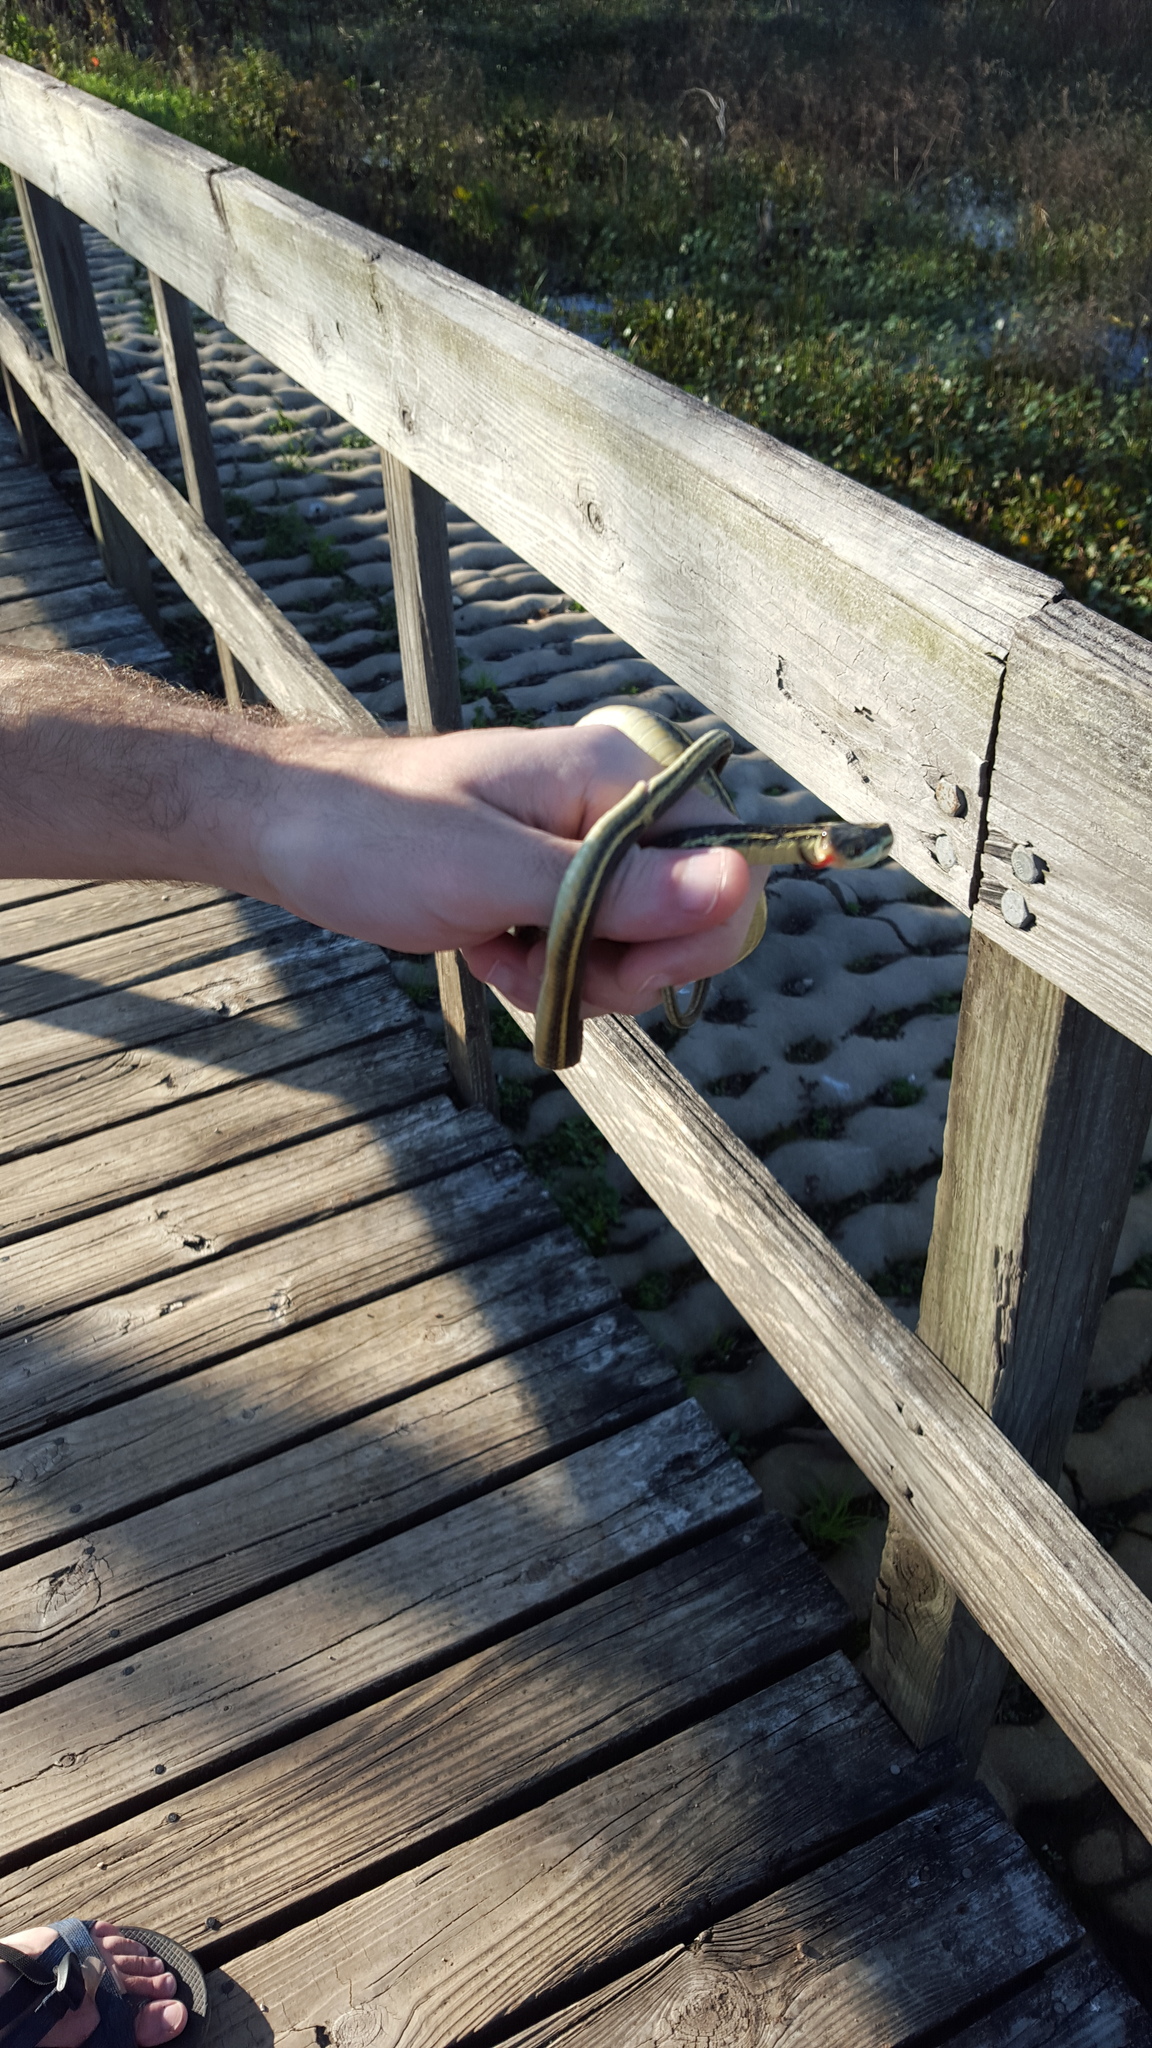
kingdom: Animalia
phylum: Chordata
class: Squamata
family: Colubridae
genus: Thamnophis
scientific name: Thamnophis proximus
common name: Western ribbon snake
